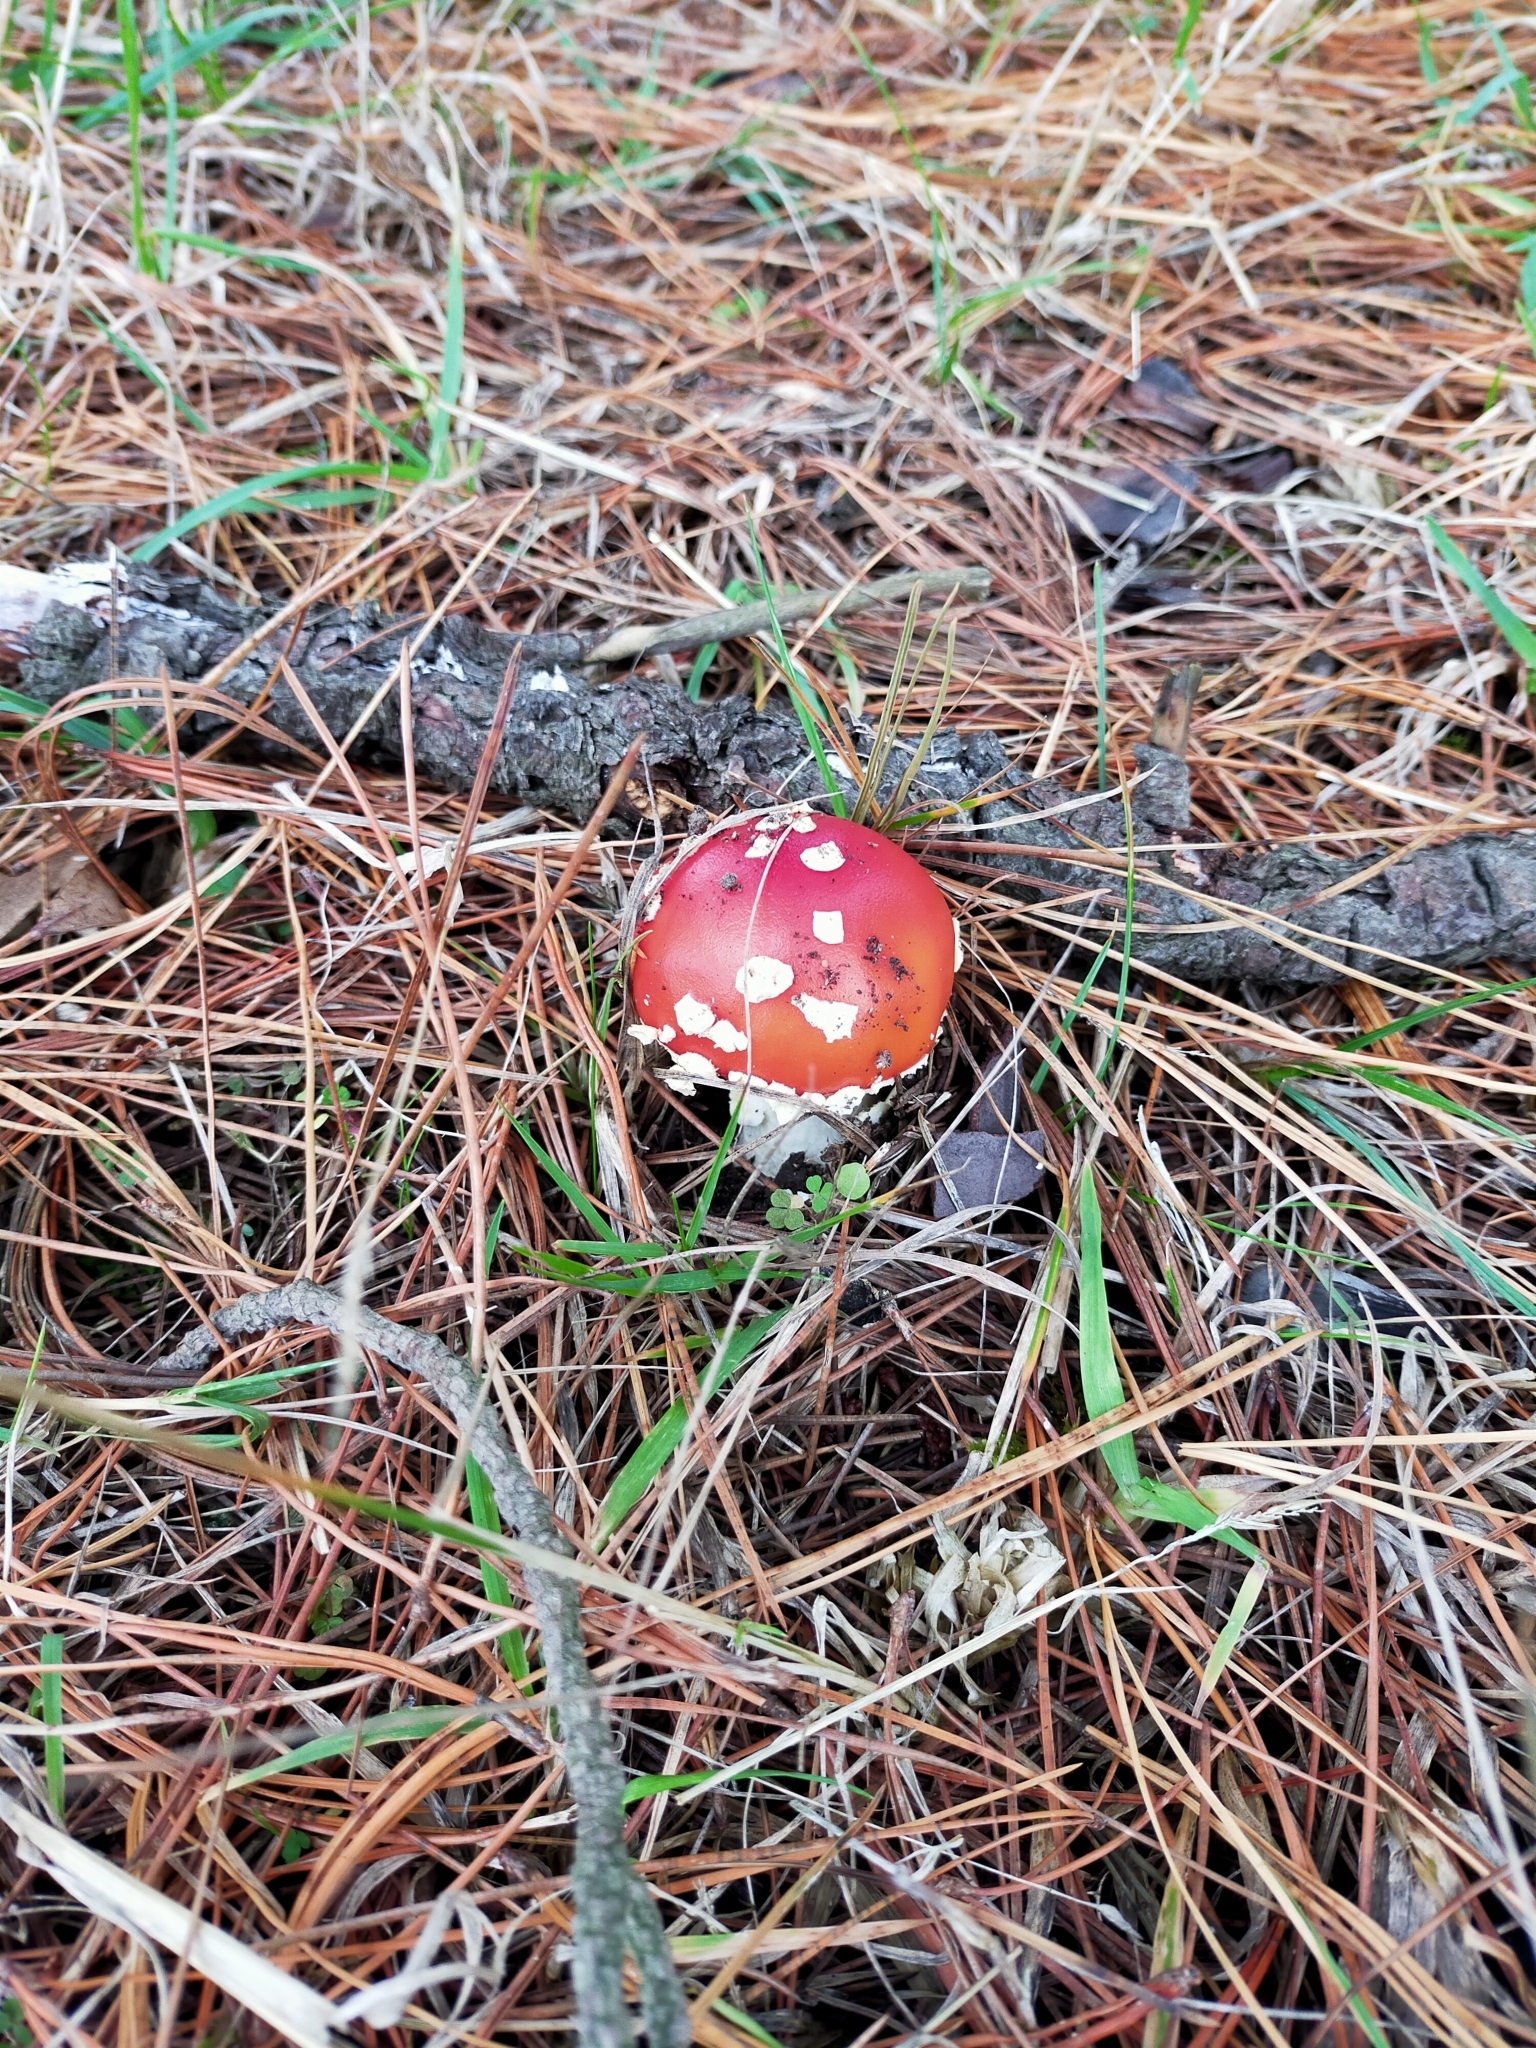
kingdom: Fungi
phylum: Basidiomycota
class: Agaricomycetes
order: Agaricales
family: Amanitaceae
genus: Amanita
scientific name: Amanita muscaria
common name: Fly agaric
